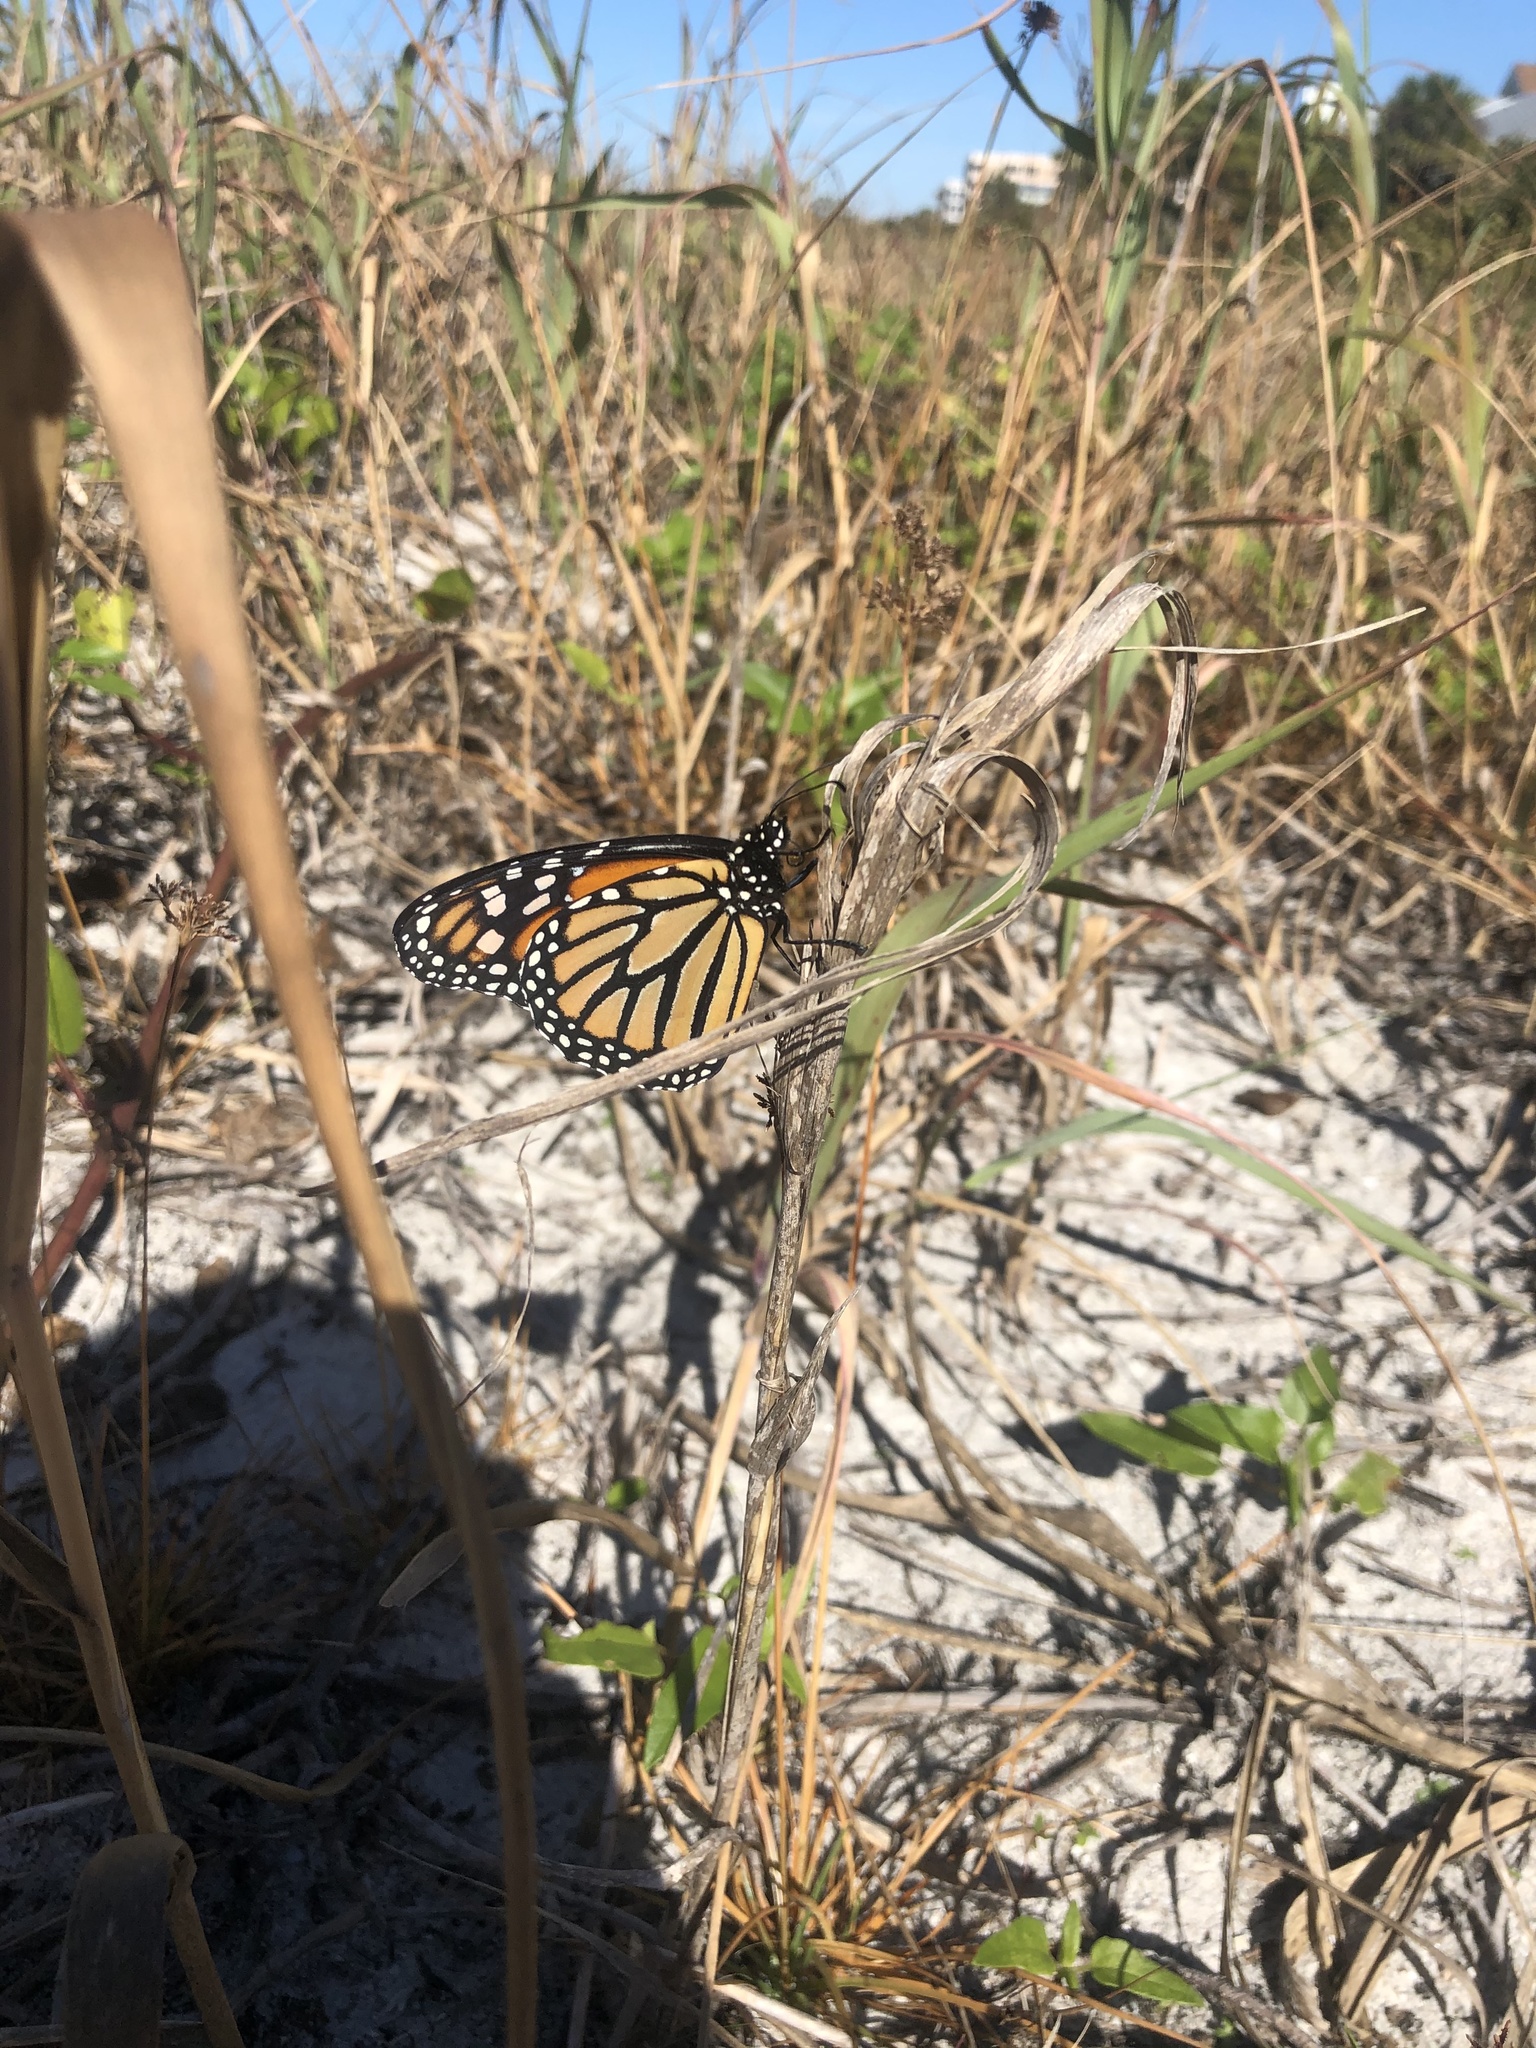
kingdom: Animalia
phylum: Arthropoda
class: Insecta
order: Lepidoptera
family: Nymphalidae
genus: Danaus
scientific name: Danaus plexippus
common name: Monarch
